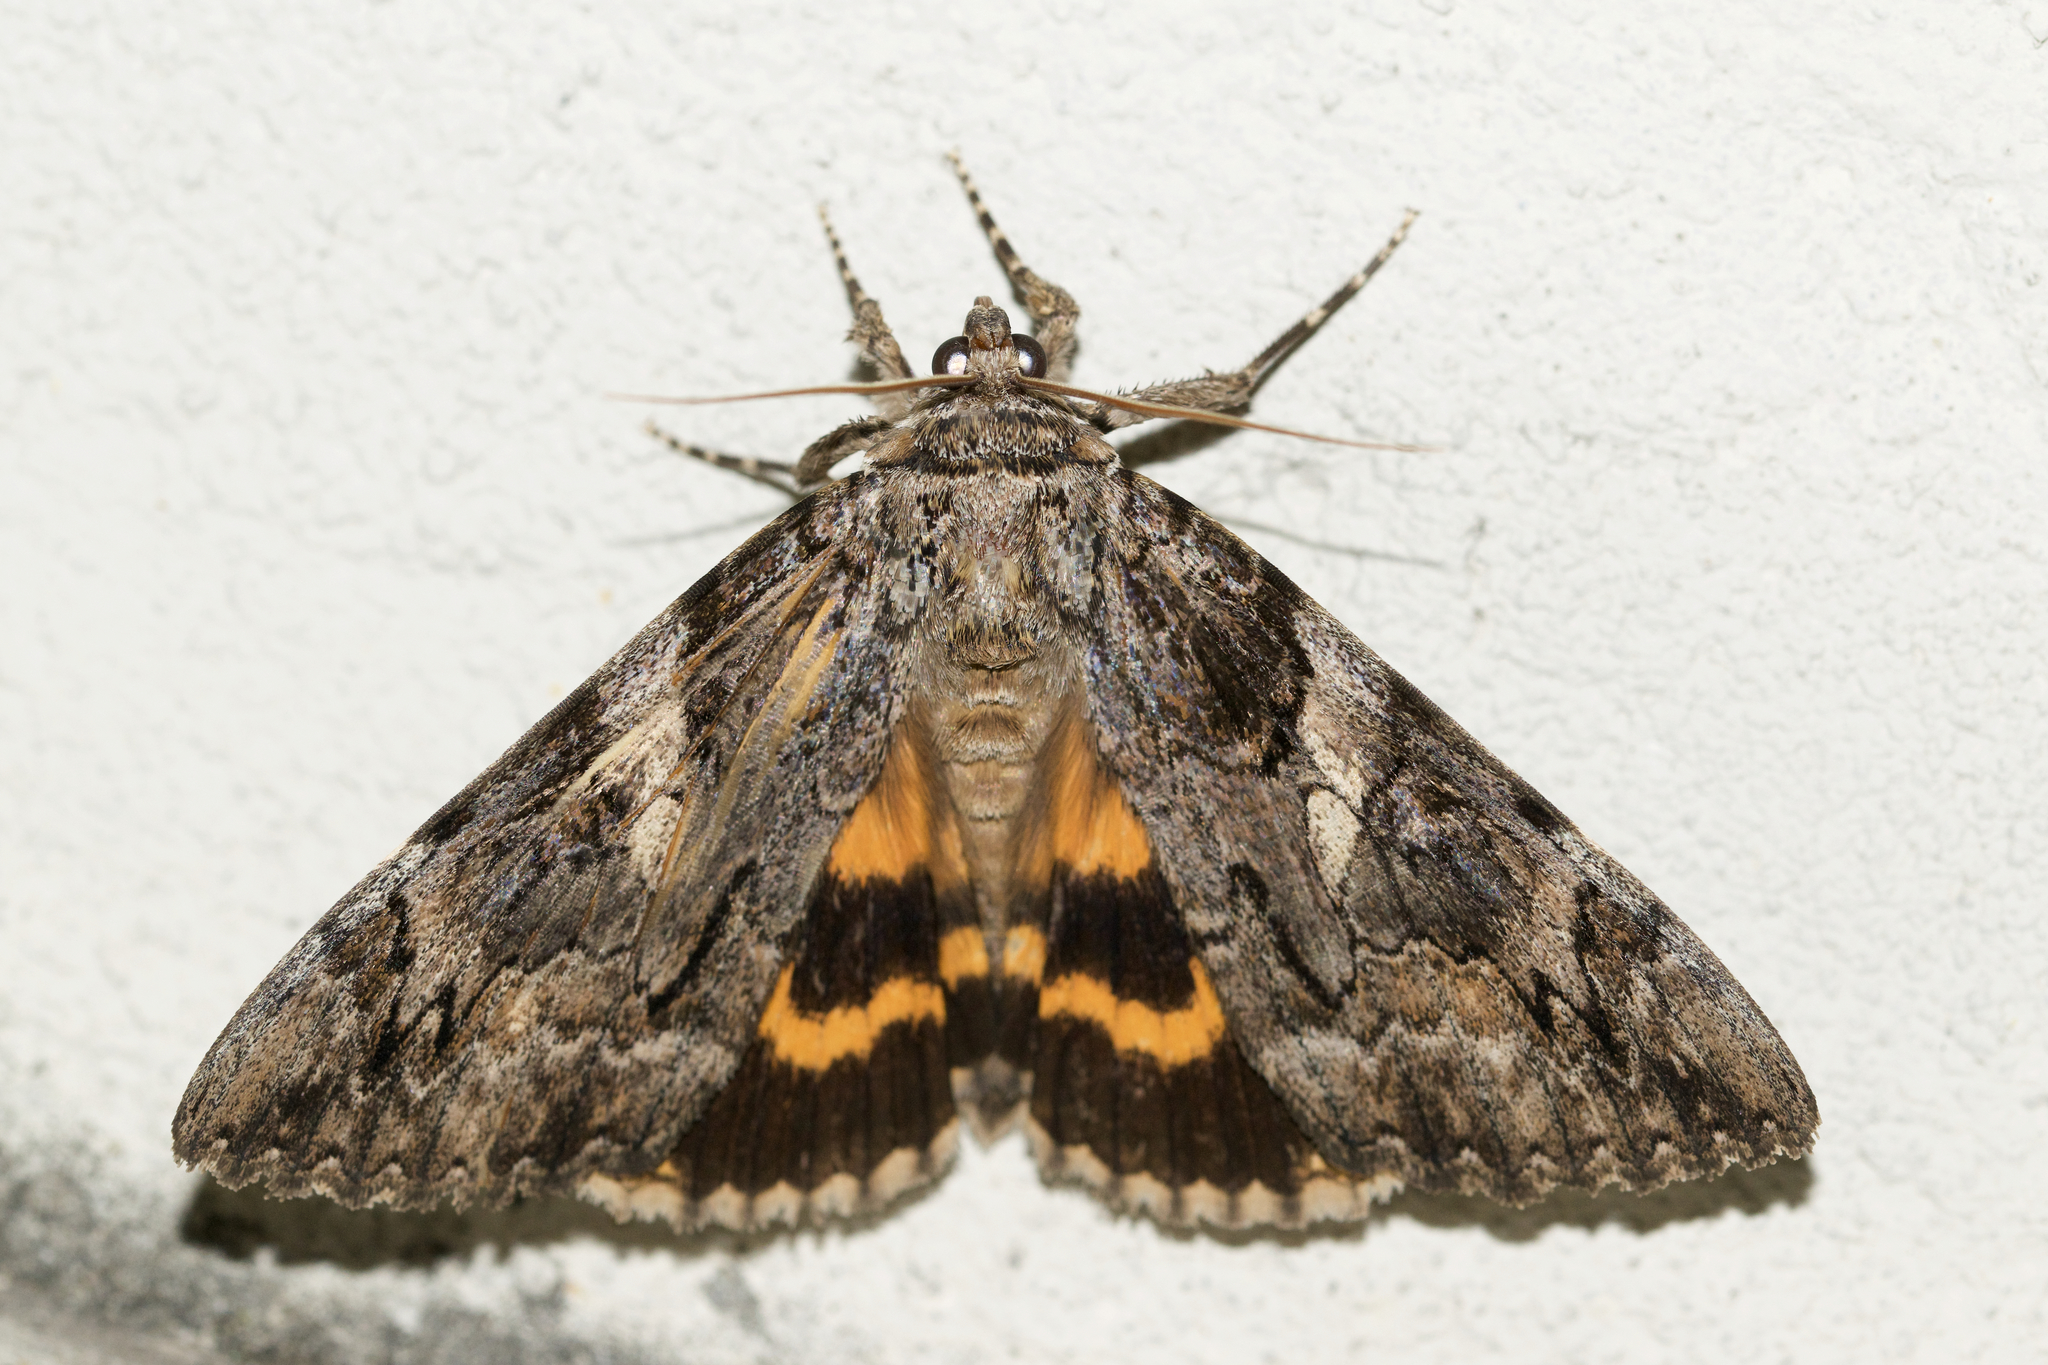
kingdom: Animalia
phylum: Arthropoda
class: Insecta
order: Lepidoptera
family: Erebidae
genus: Catocala
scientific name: Catocala piatrix
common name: The penitent underwing
